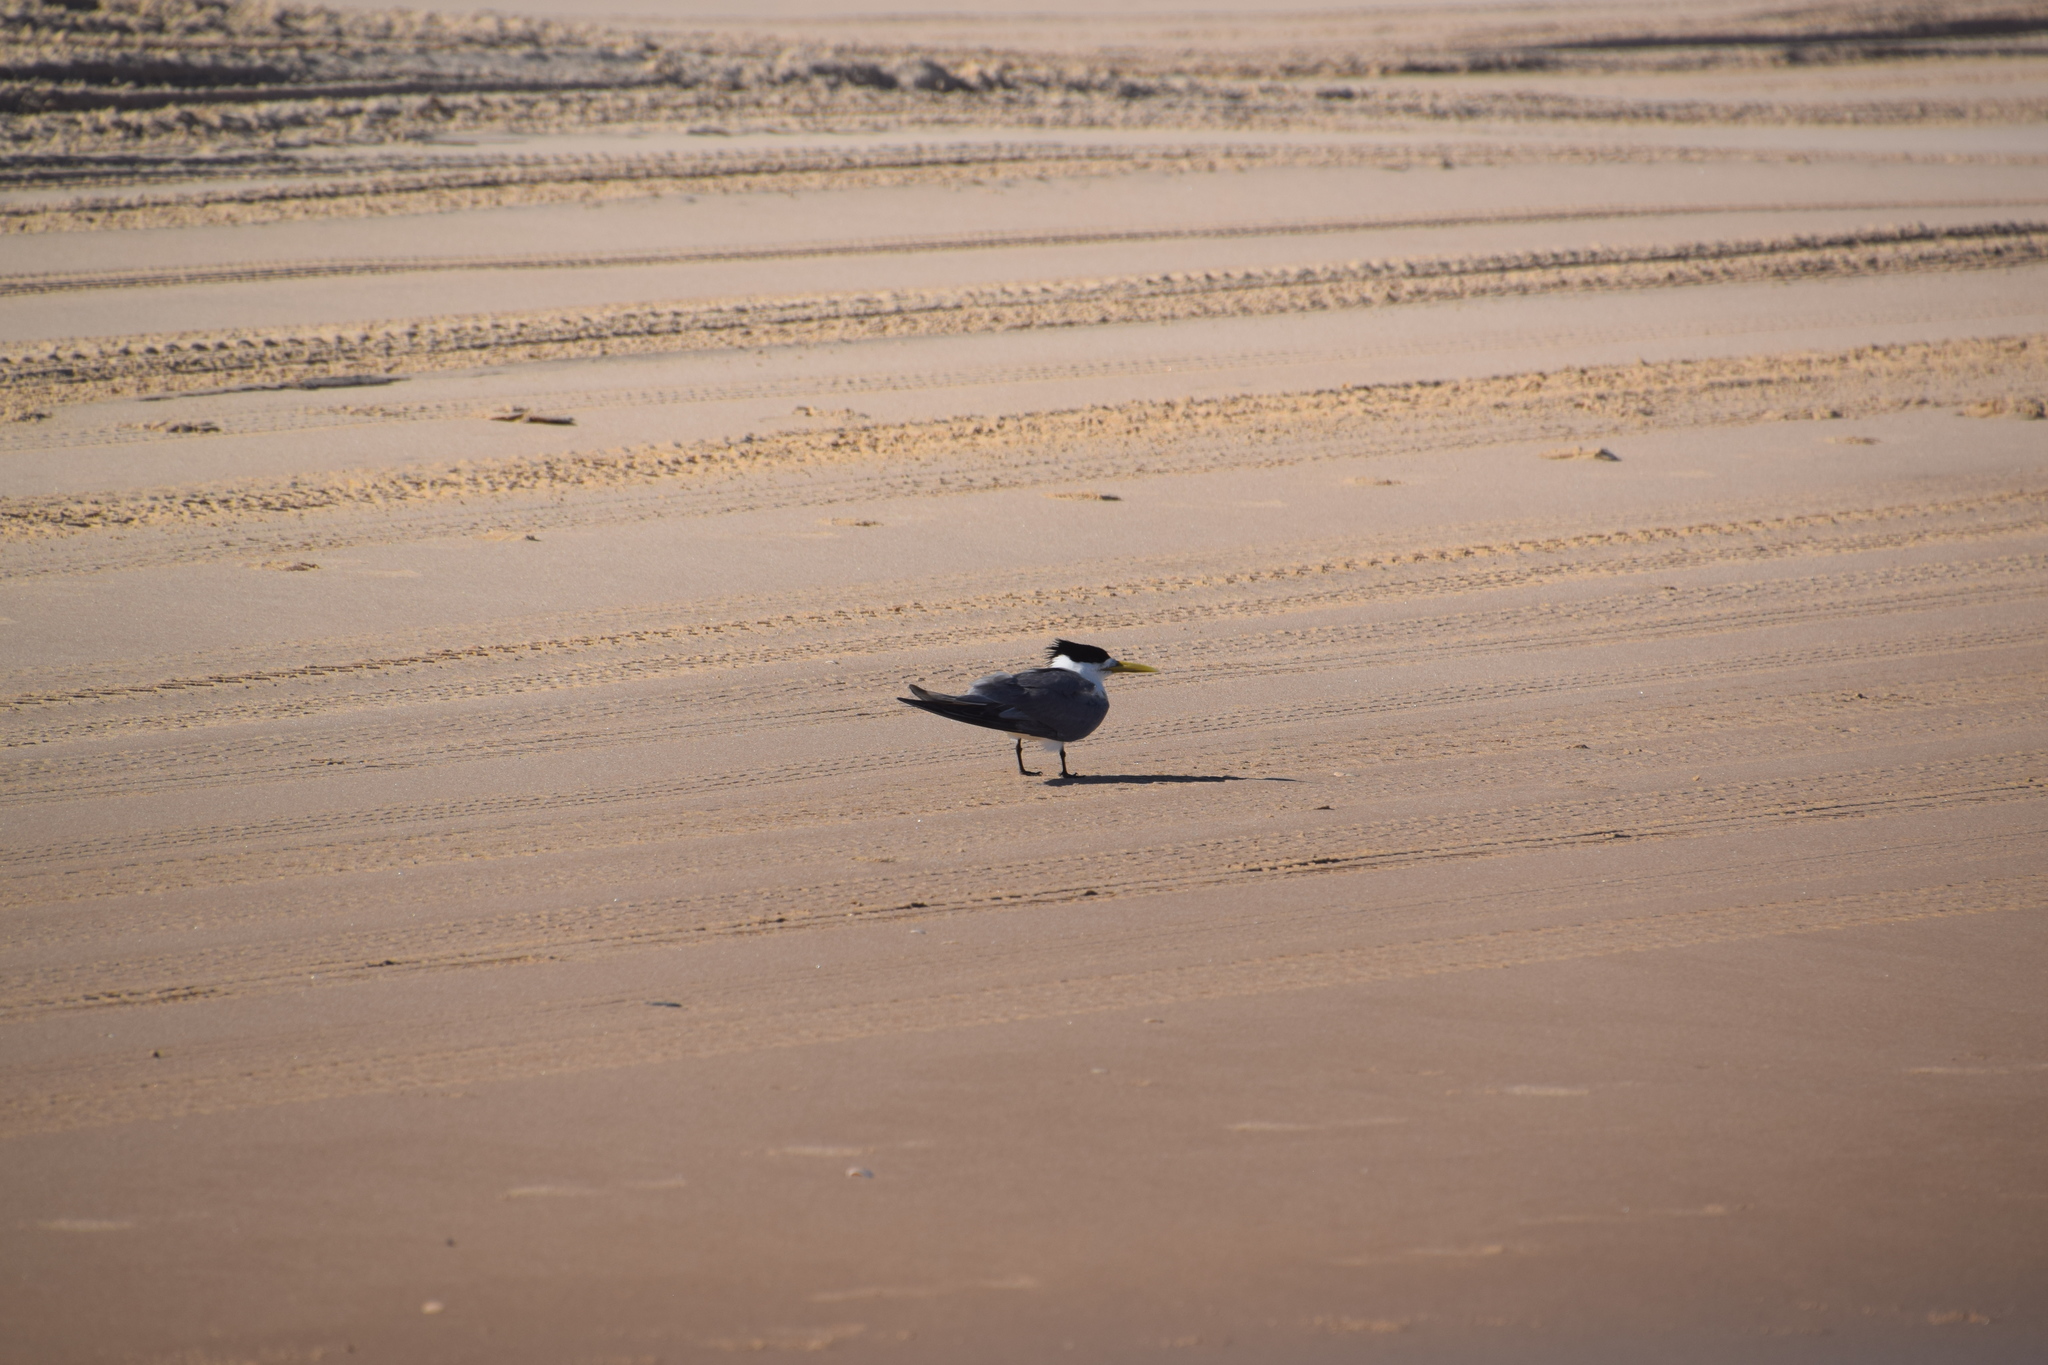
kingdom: Animalia
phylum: Chordata
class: Aves
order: Charadriiformes
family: Laridae
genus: Thalasseus
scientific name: Thalasseus bergii
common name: Greater crested tern
